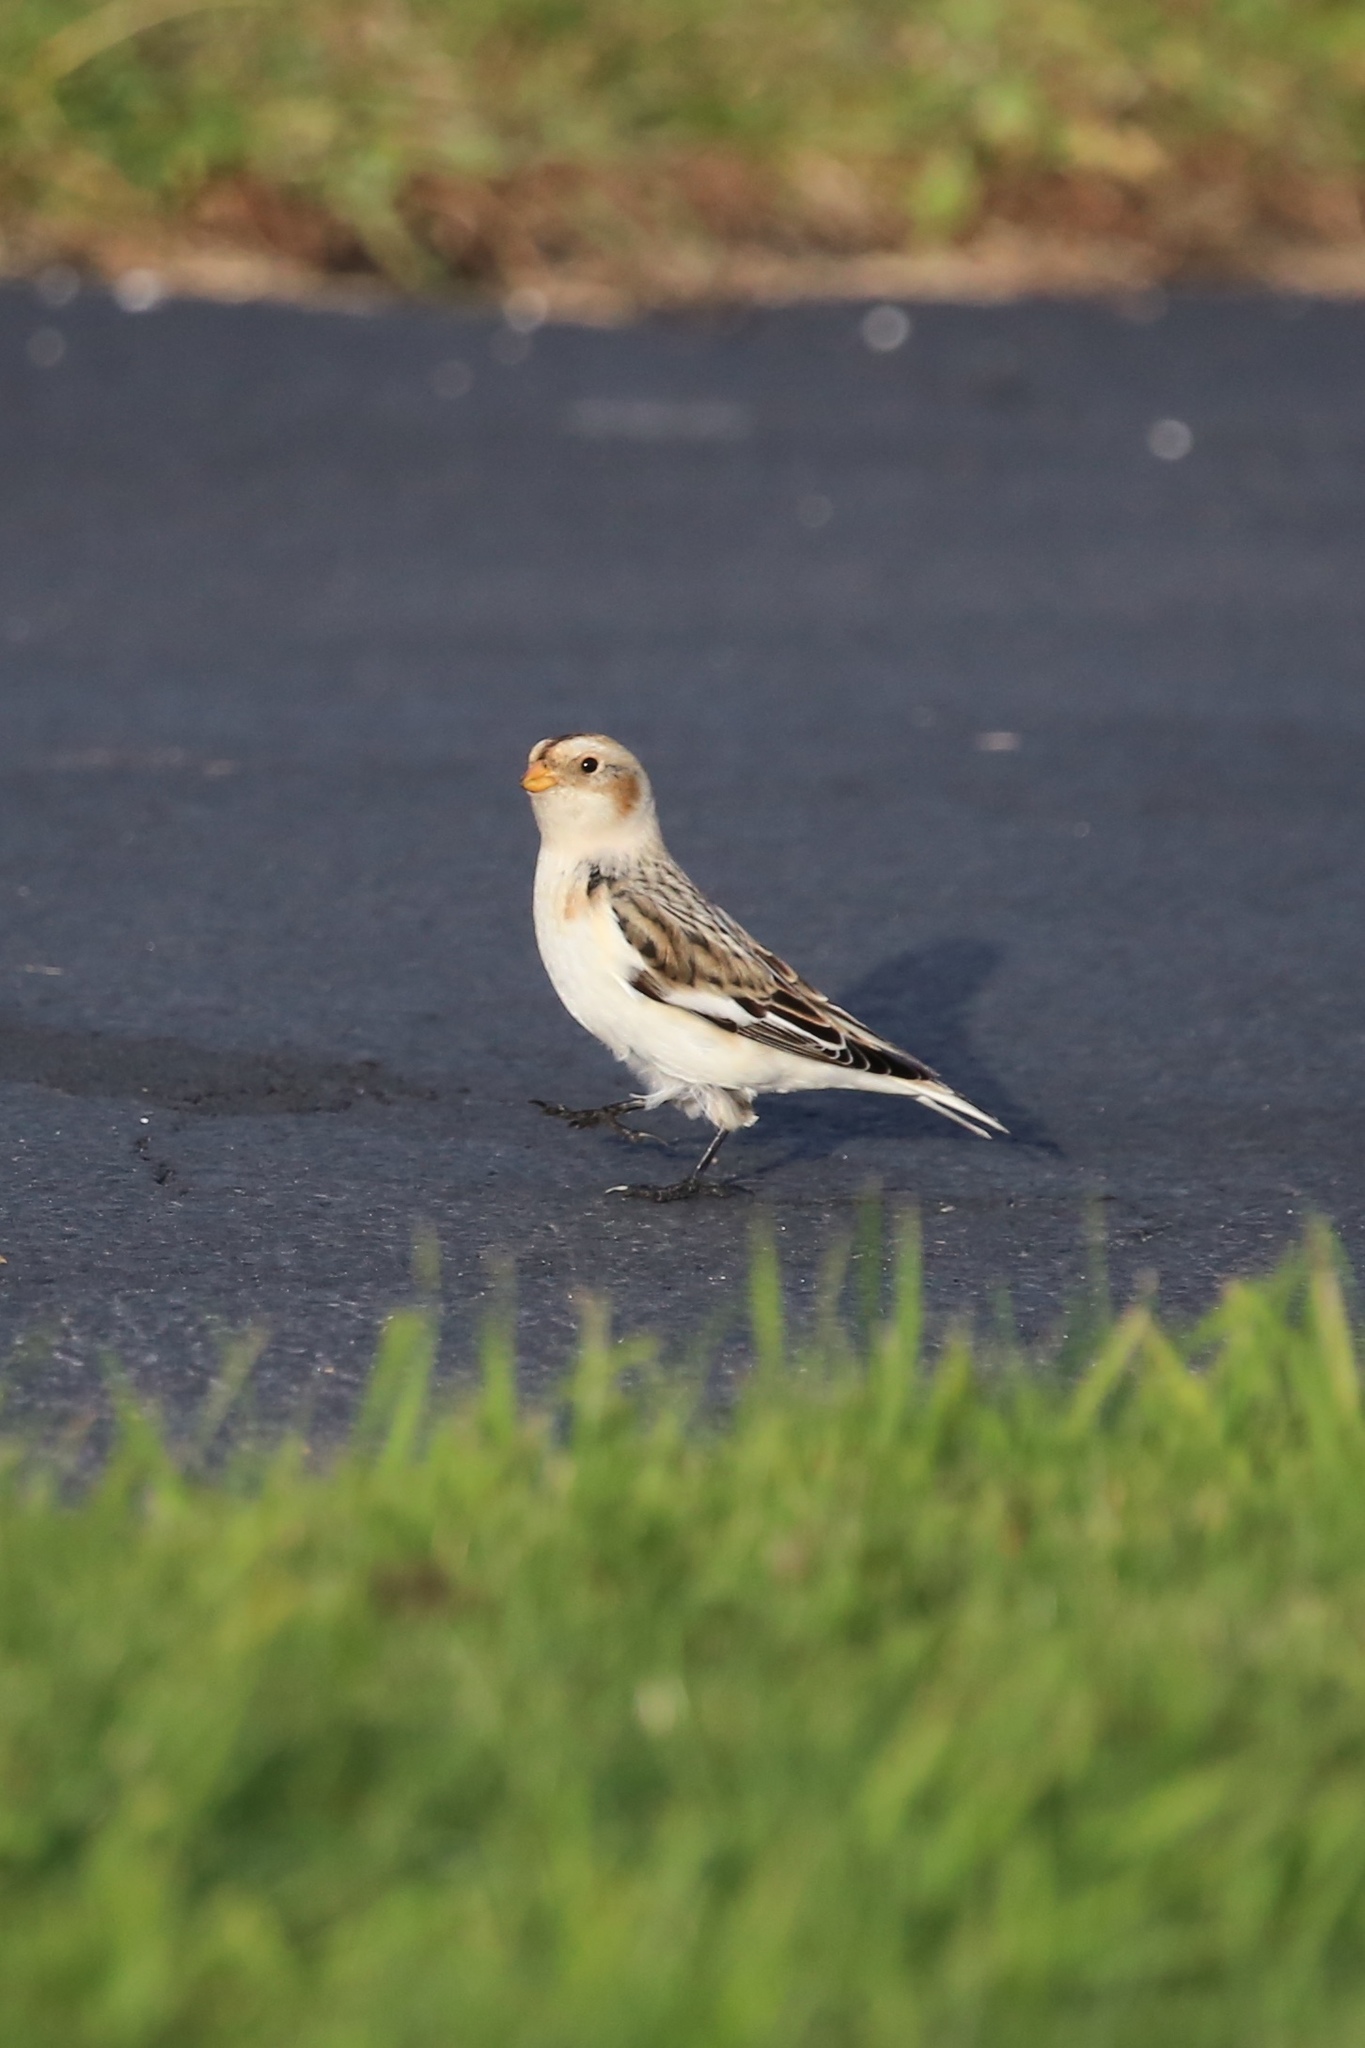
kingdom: Animalia
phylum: Chordata
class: Aves
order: Passeriformes
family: Calcariidae
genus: Plectrophenax
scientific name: Plectrophenax nivalis
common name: Snow bunting
